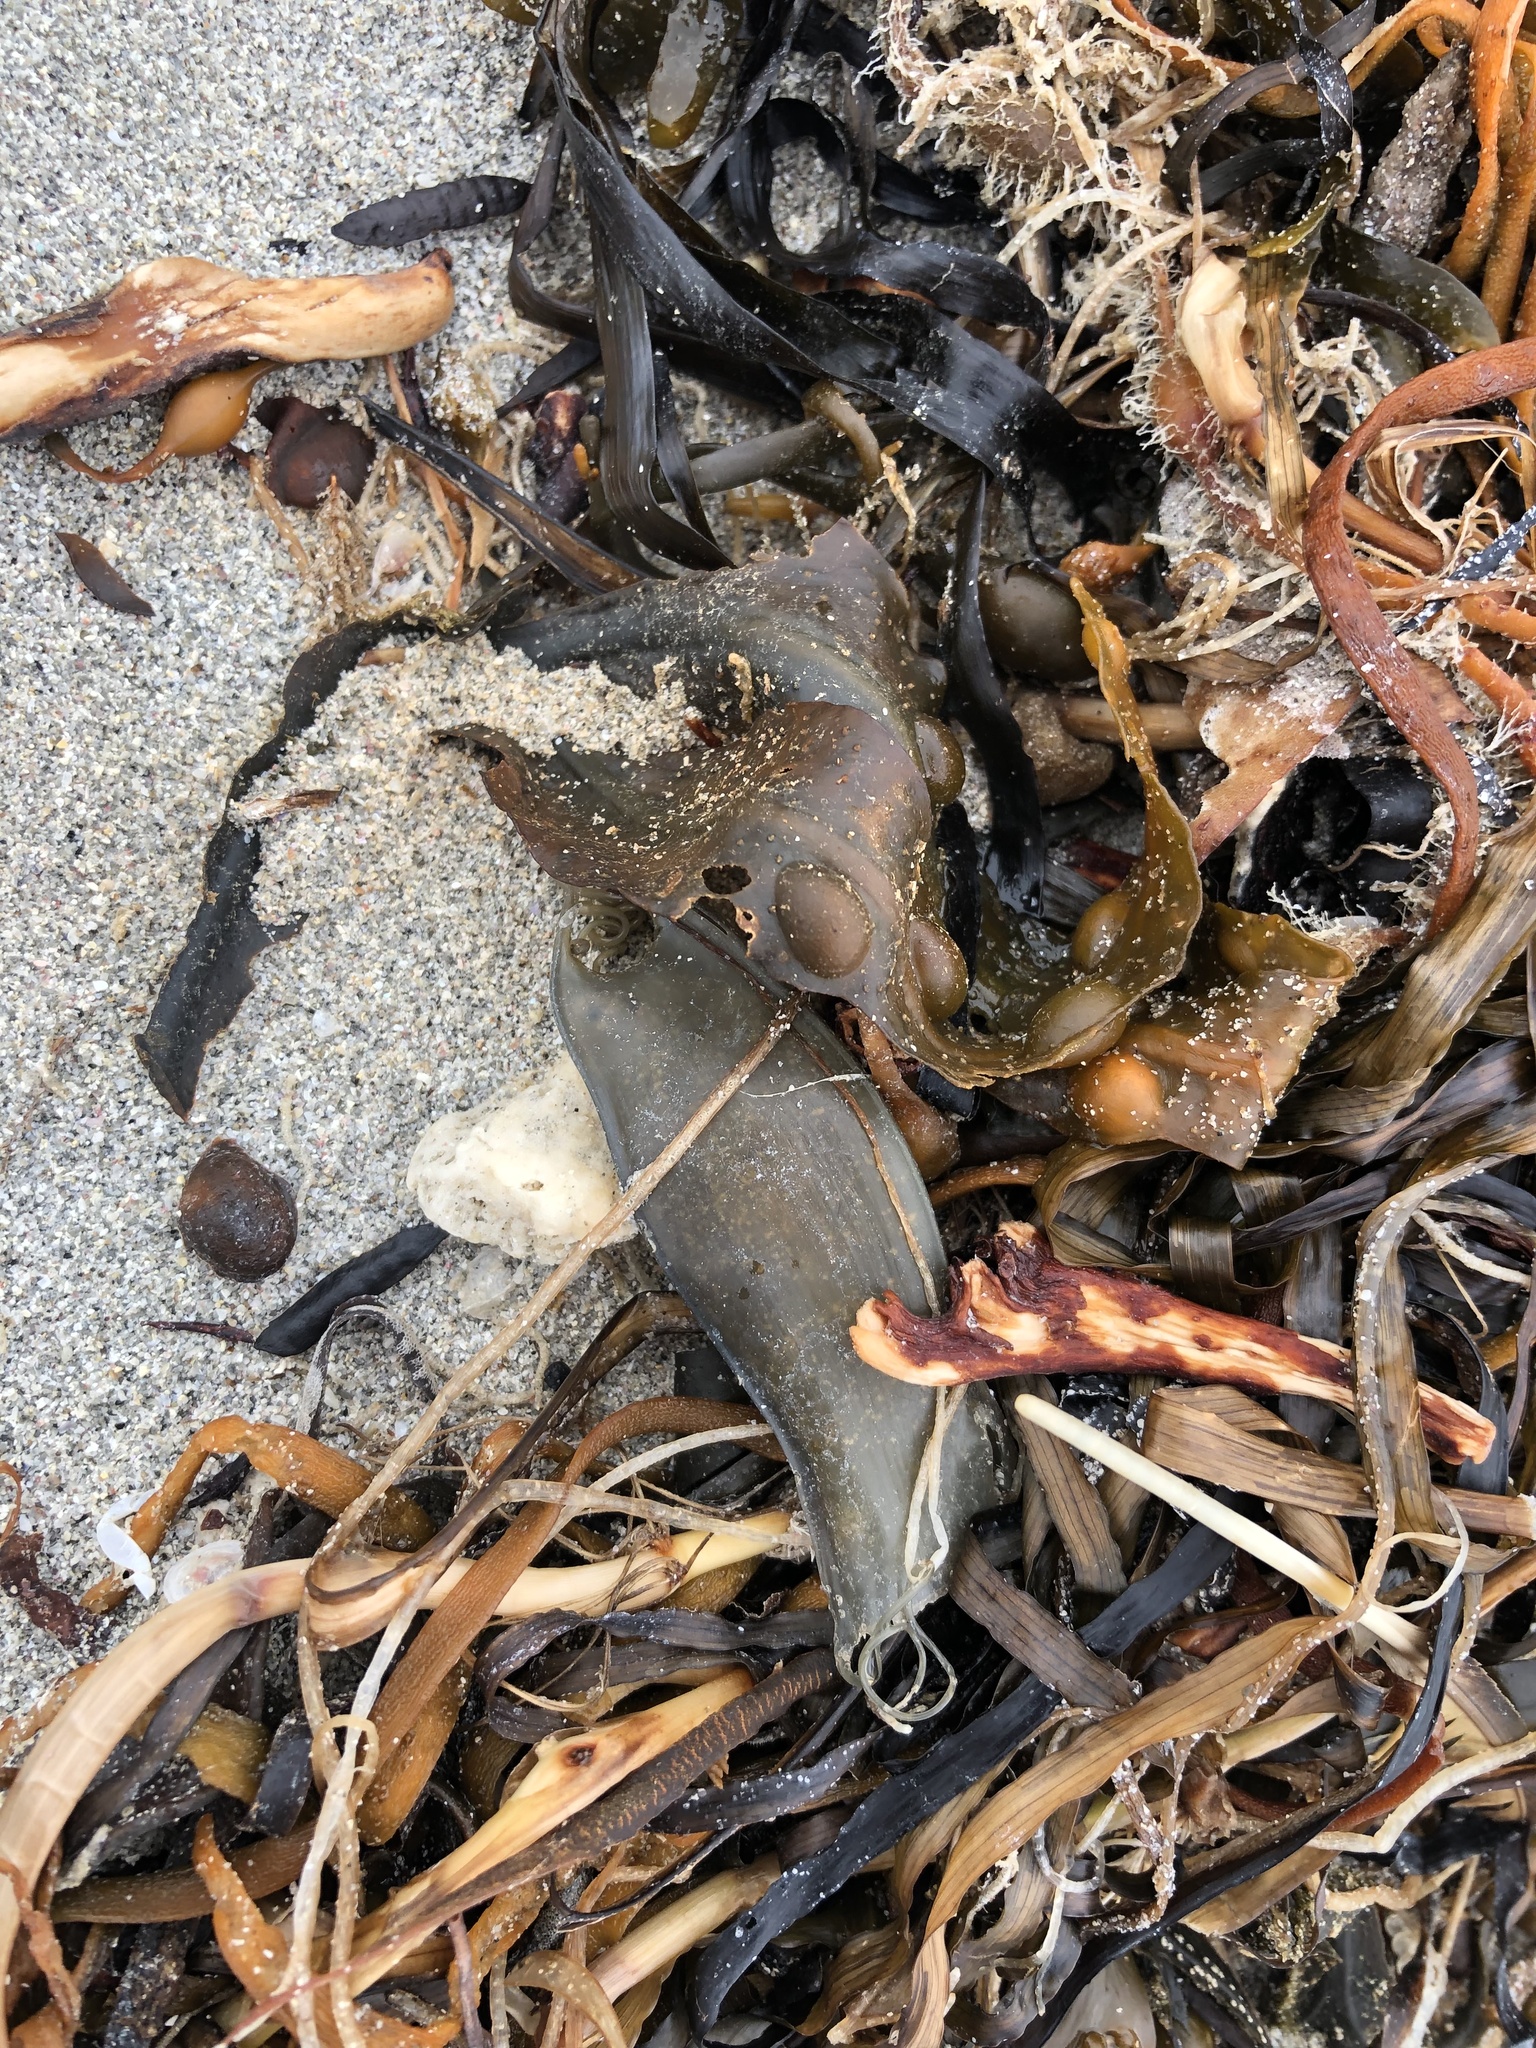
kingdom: Animalia
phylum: Chordata
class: Elasmobranchii
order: Carcharhiniformes
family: Scyliorhinidae
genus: Scyliorhinus
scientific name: Scyliorhinus canicula
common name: Lesser spotted dogfish
